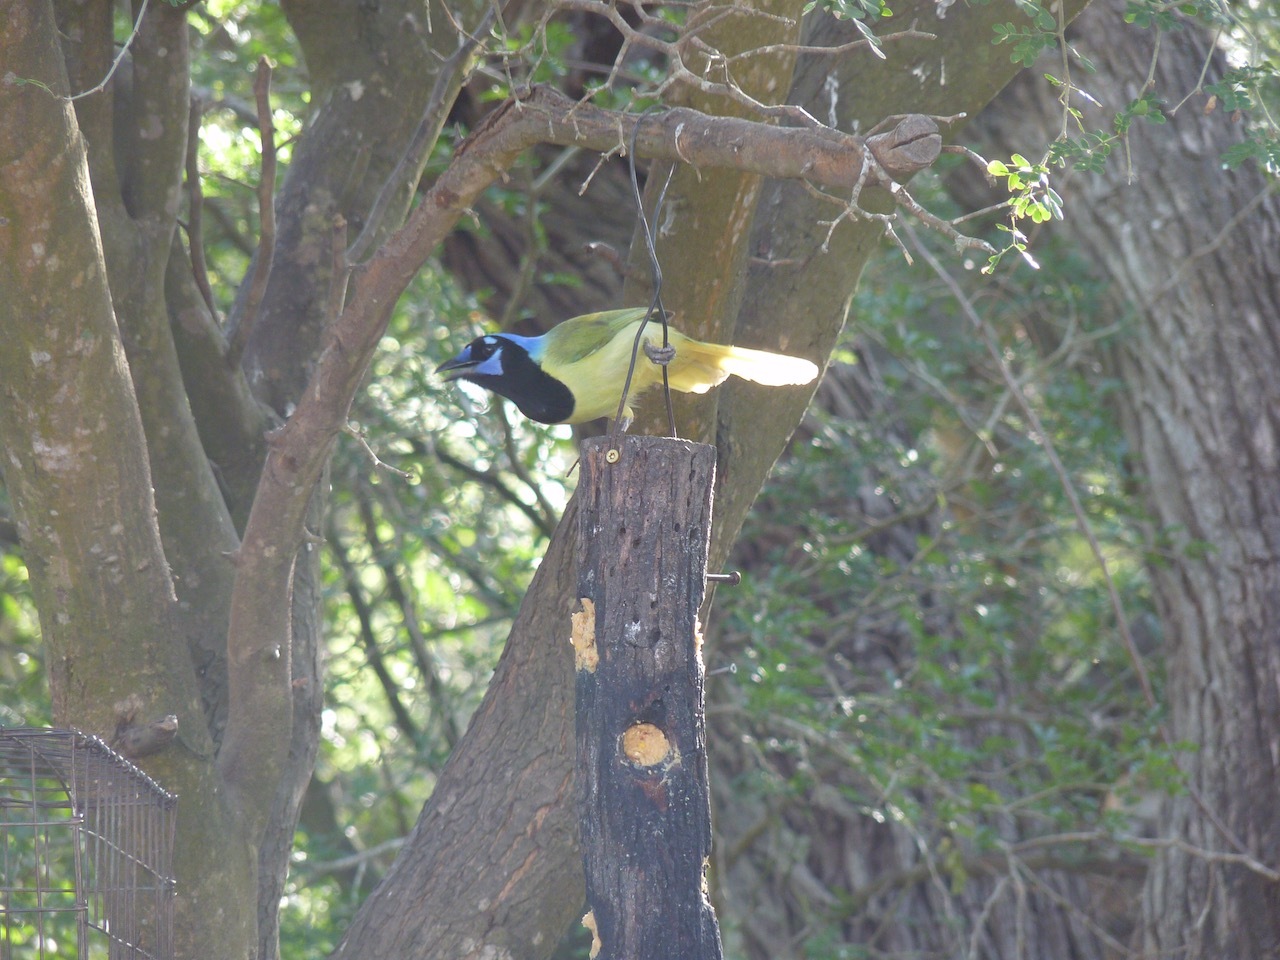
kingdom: Animalia
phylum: Chordata
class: Aves
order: Passeriformes
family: Corvidae
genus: Cyanocorax
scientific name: Cyanocorax yncas
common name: Green jay
